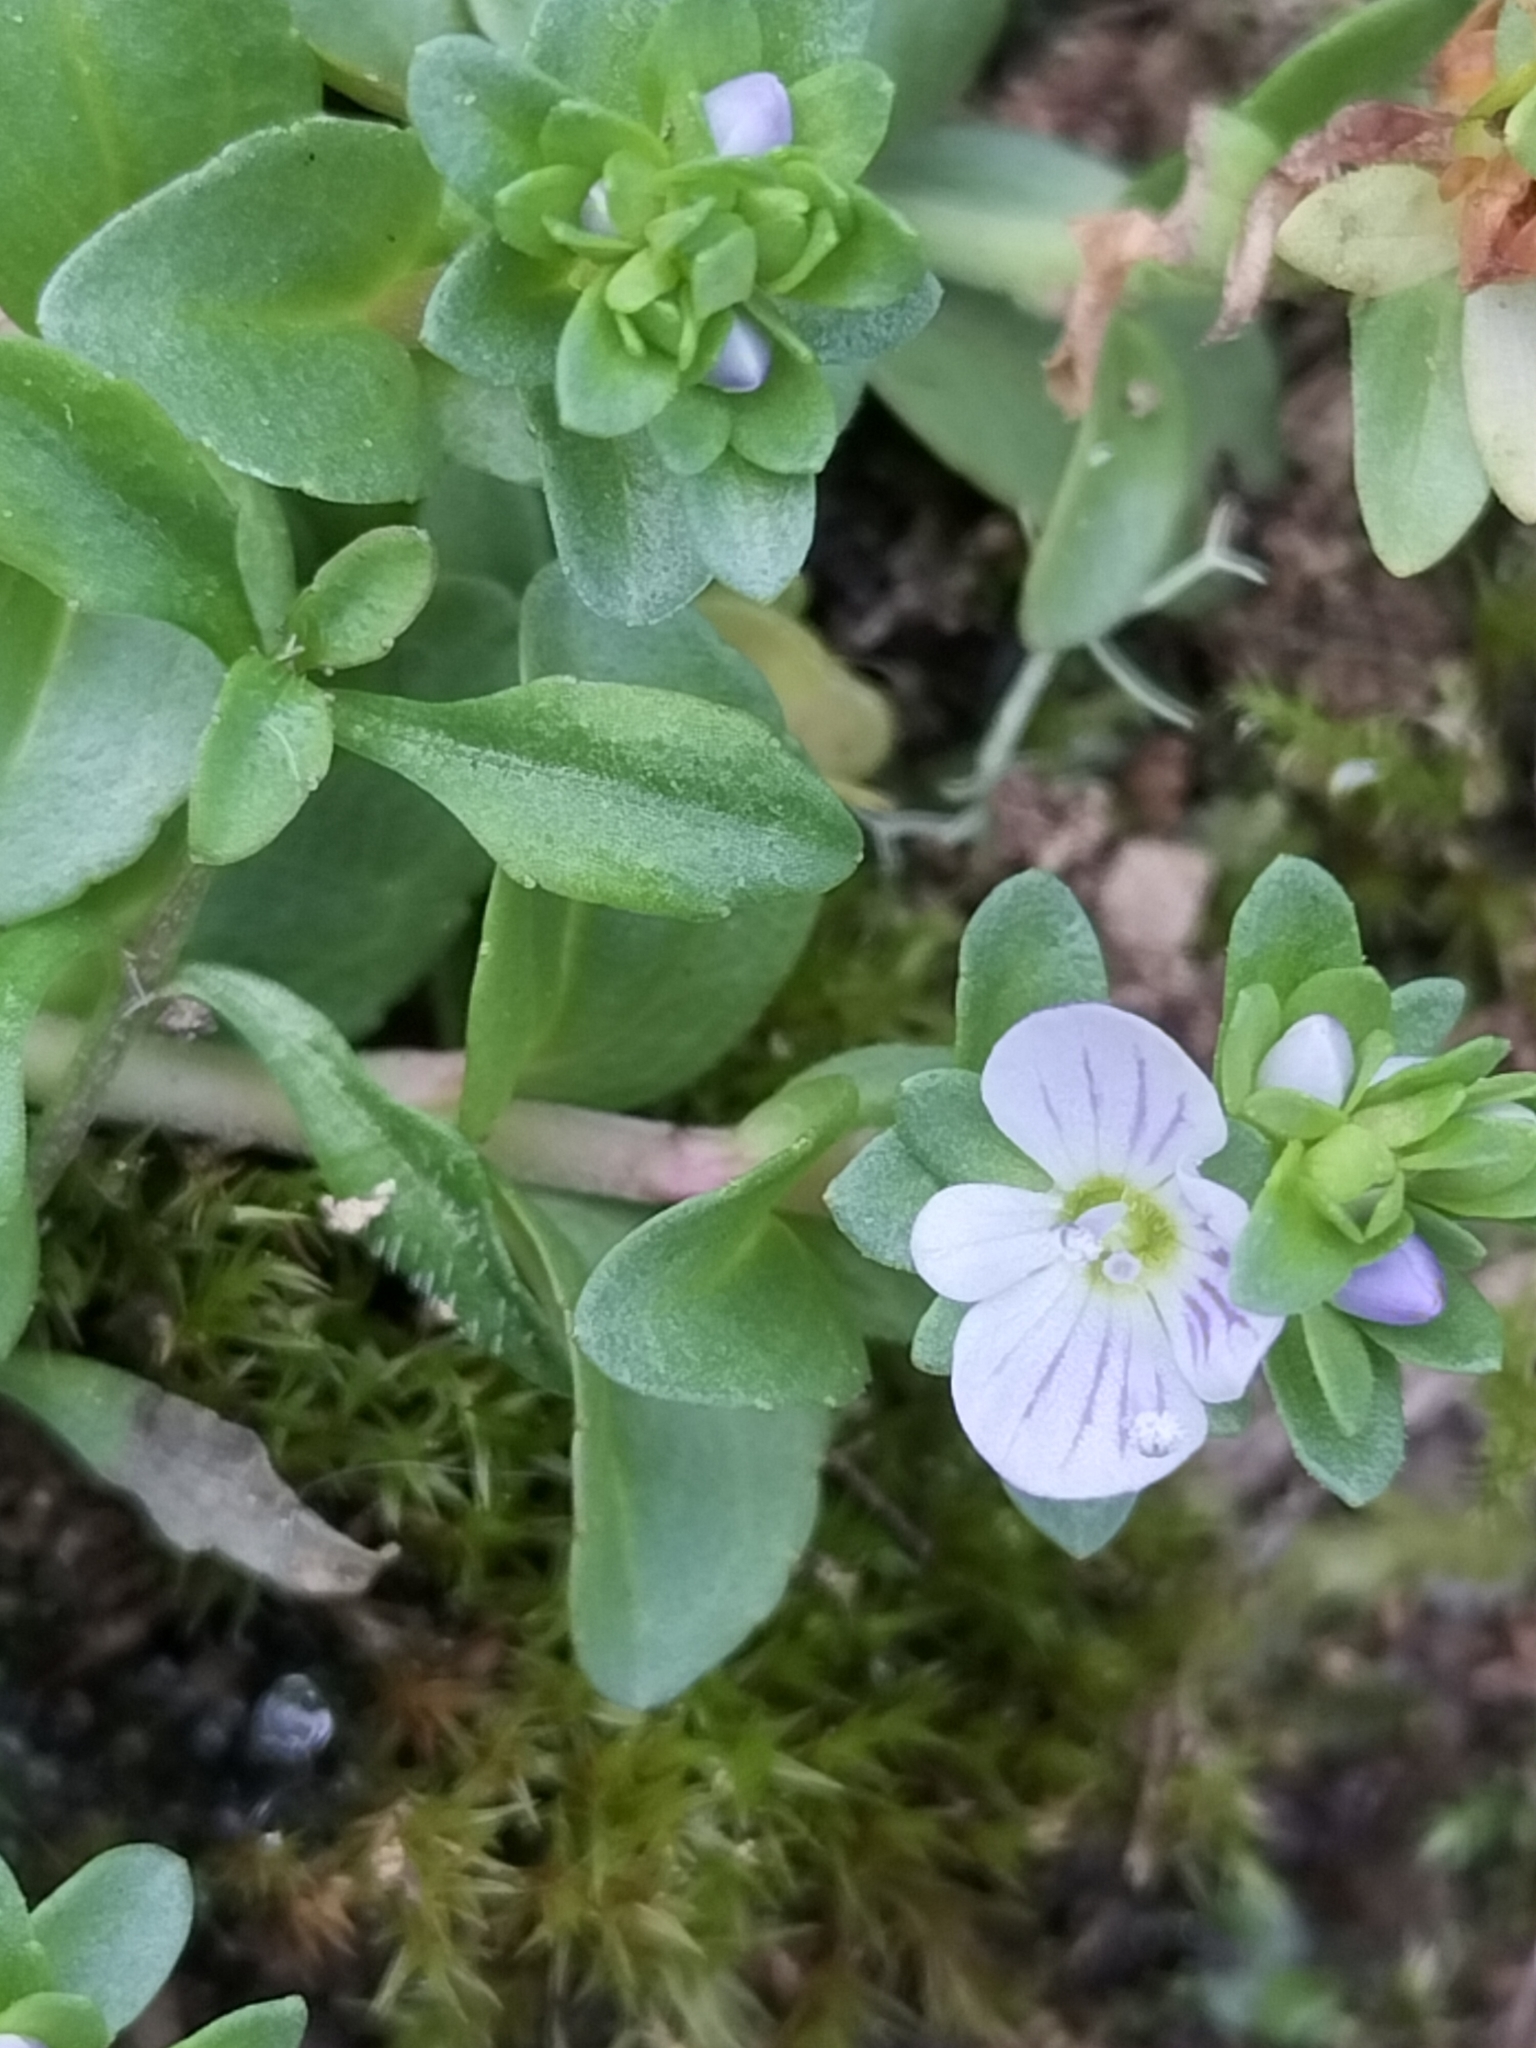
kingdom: Plantae
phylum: Tracheophyta
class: Magnoliopsida
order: Lamiales
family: Plantaginaceae
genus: Veronica
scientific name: Veronica serpyllifolia
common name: Thyme-leaved speedwell
